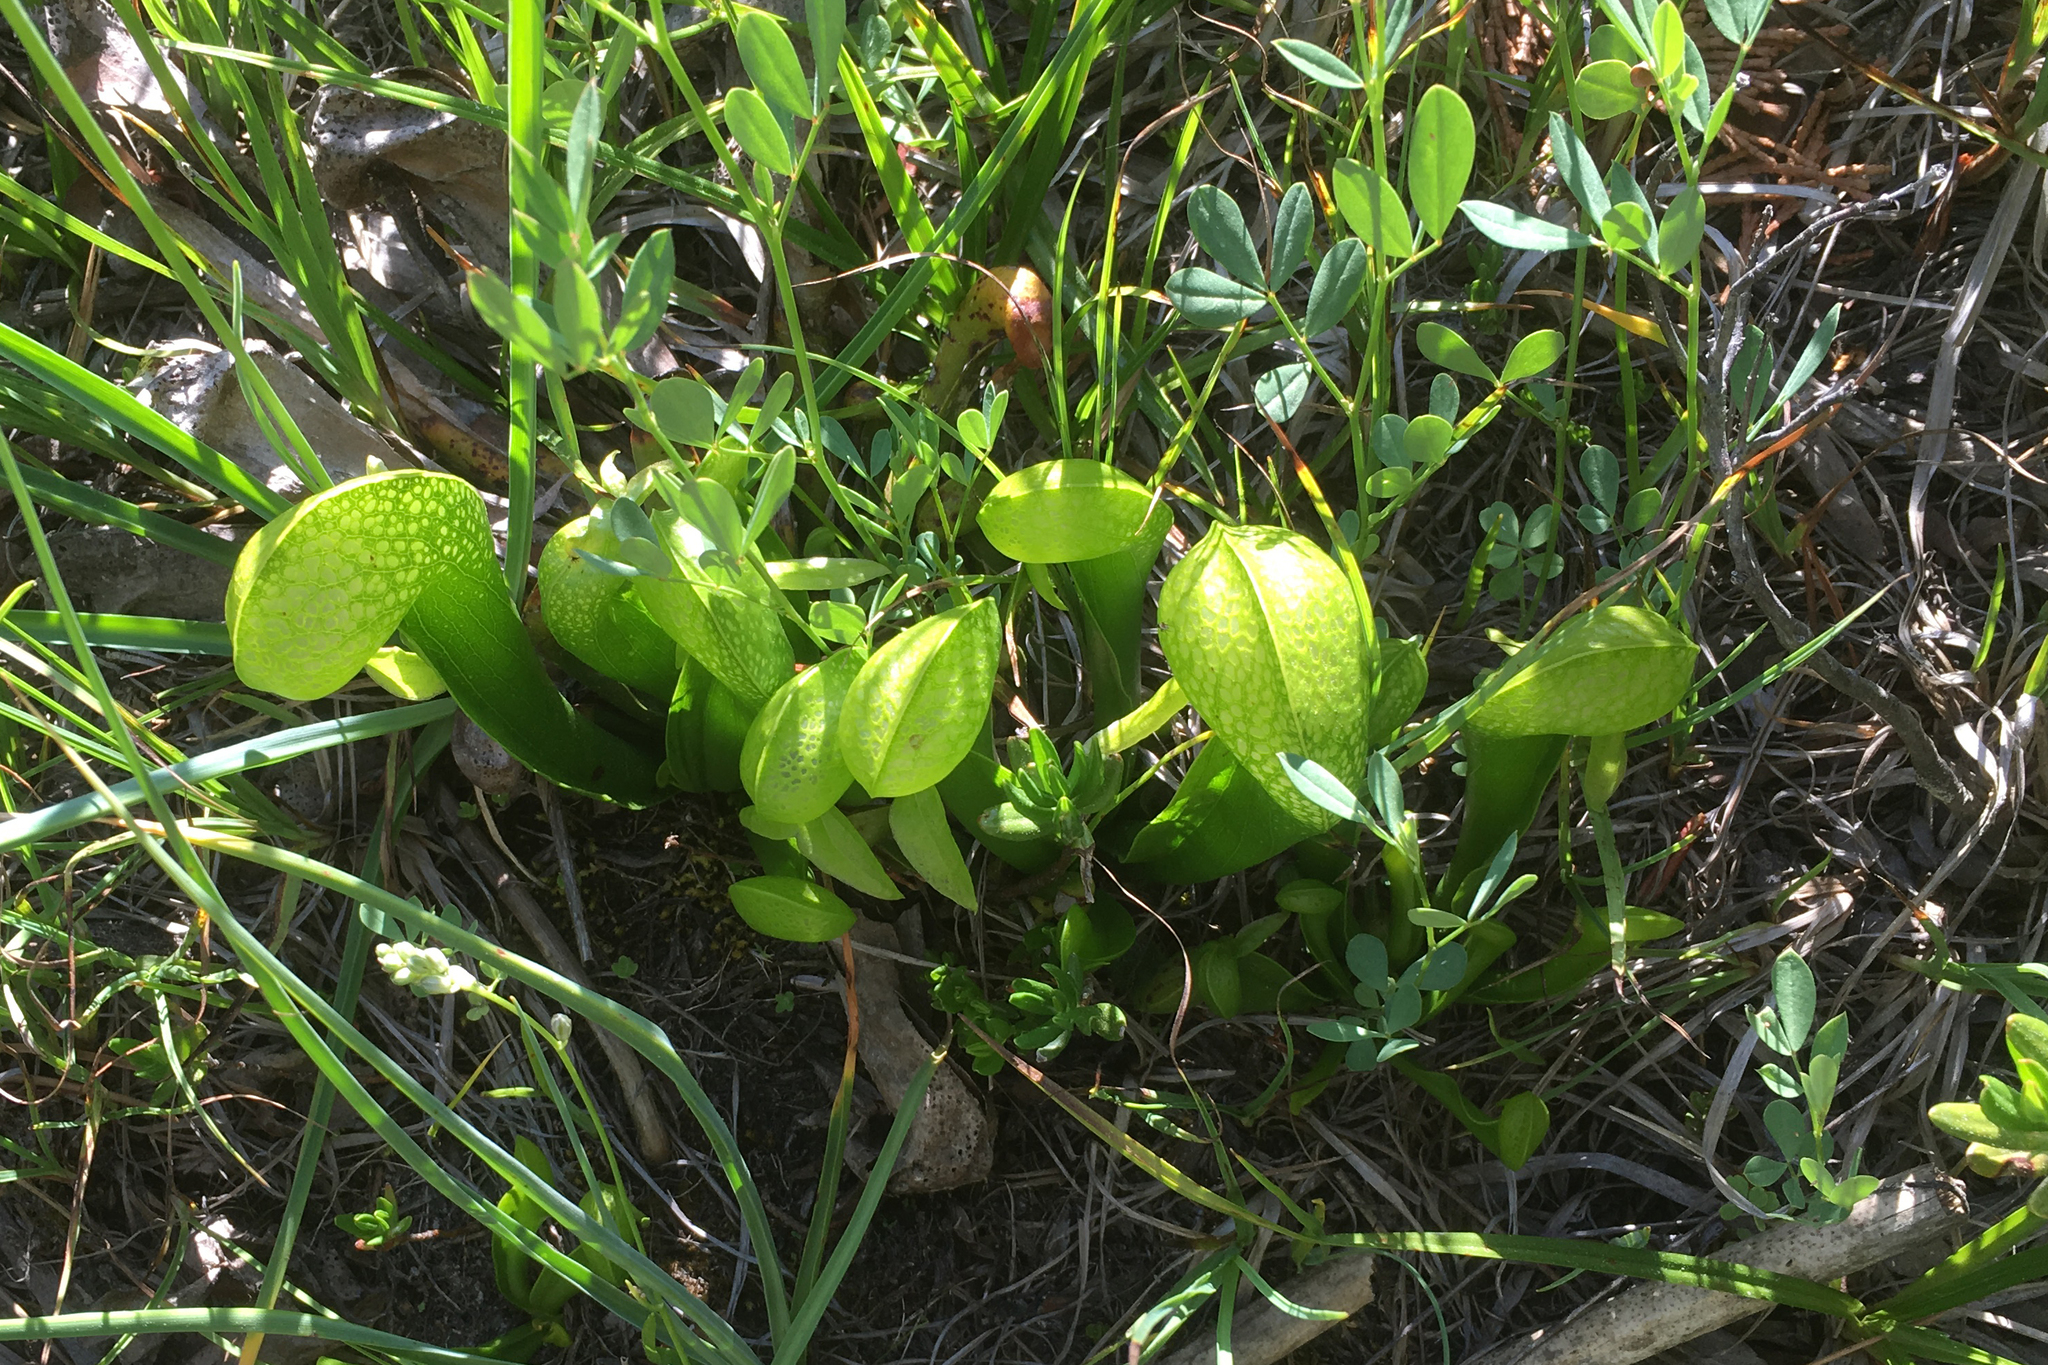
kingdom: Plantae
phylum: Tracheophyta
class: Magnoliopsida
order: Ericales
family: Sarraceniaceae
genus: Darlingtonia
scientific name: Darlingtonia californica
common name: California pitcher plant
